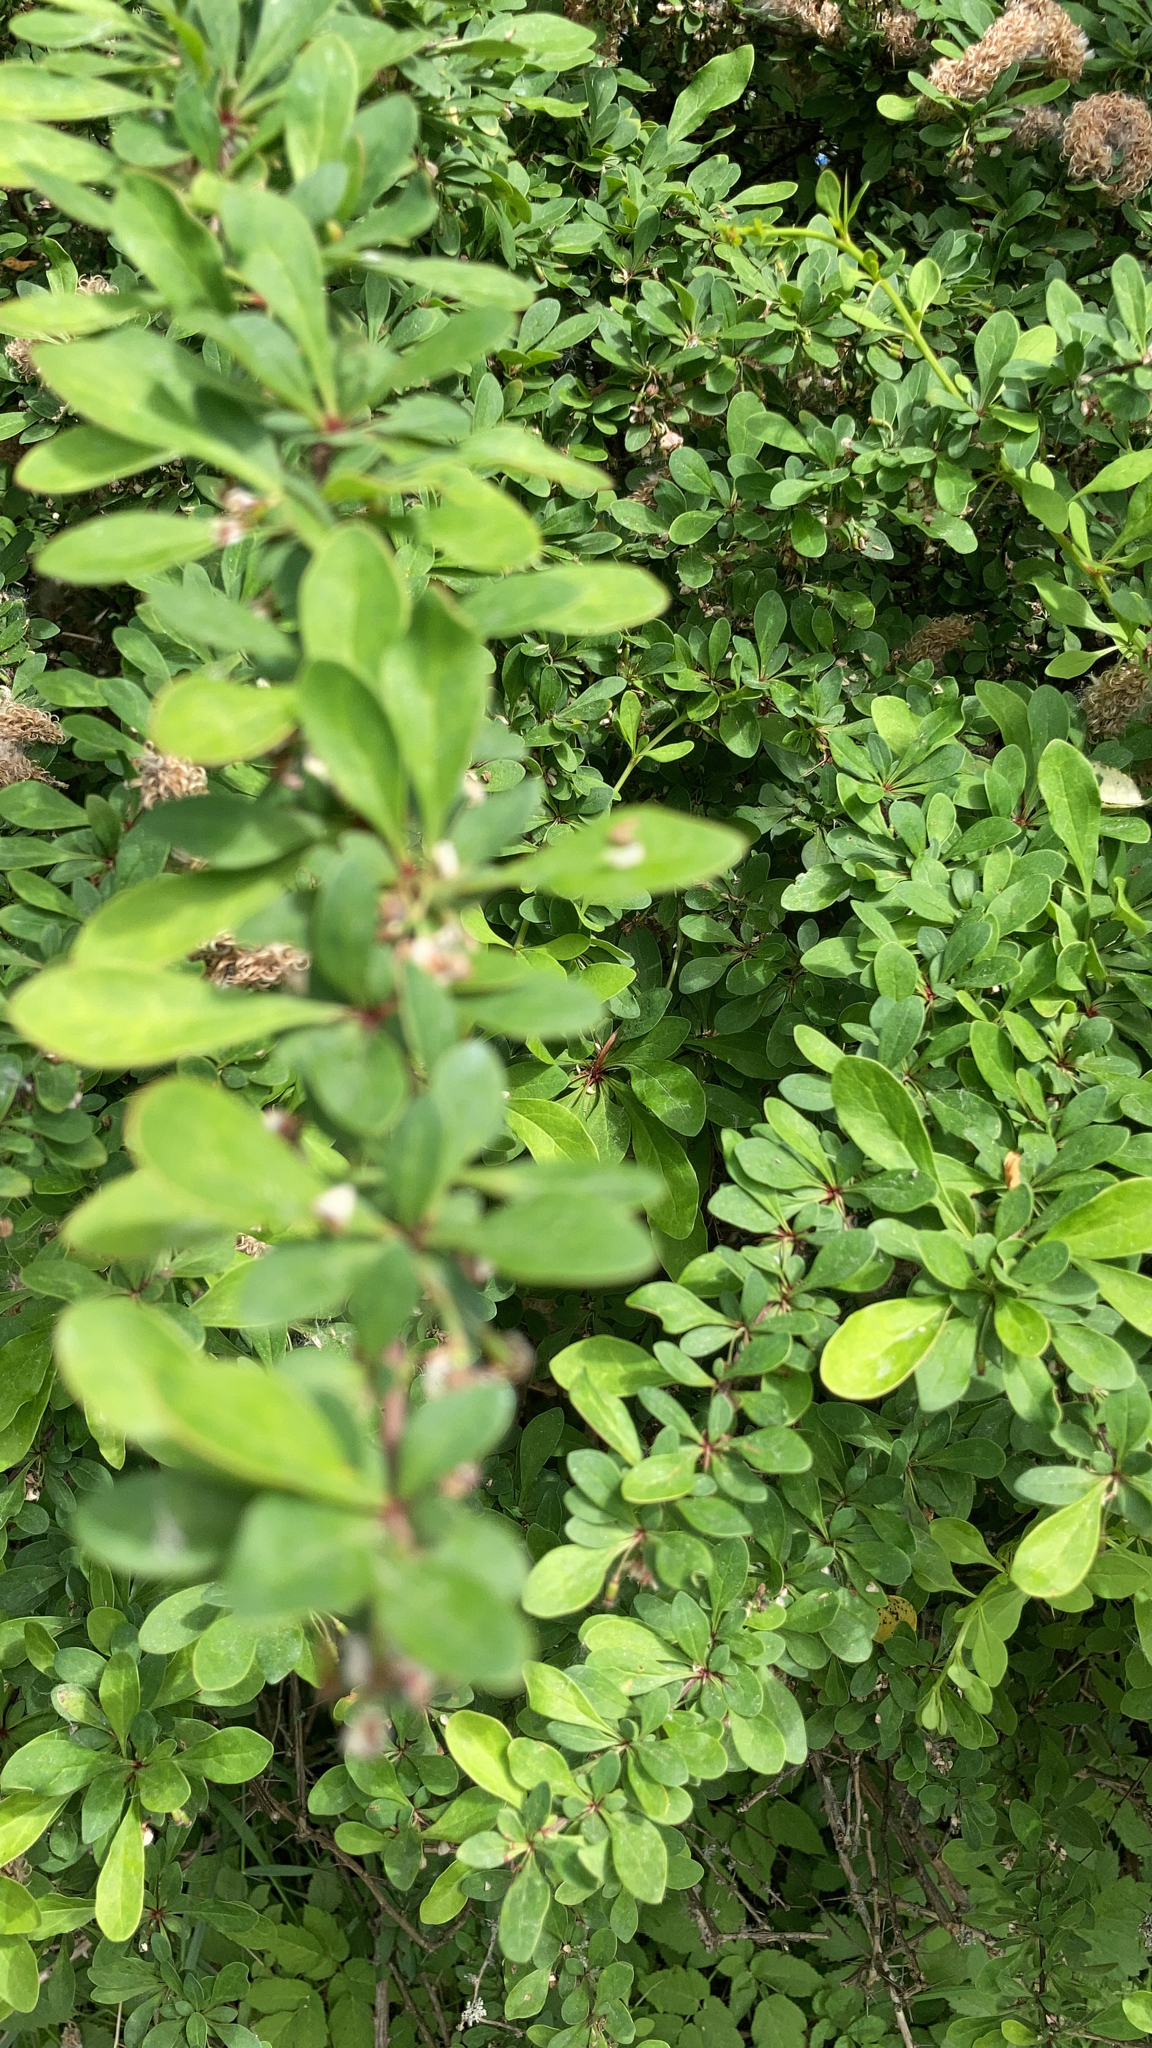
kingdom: Plantae
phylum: Tracheophyta
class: Magnoliopsida
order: Ranunculales
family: Berberidaceae
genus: Berberis
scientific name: Berberis thunbergii
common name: Japanese barberry
